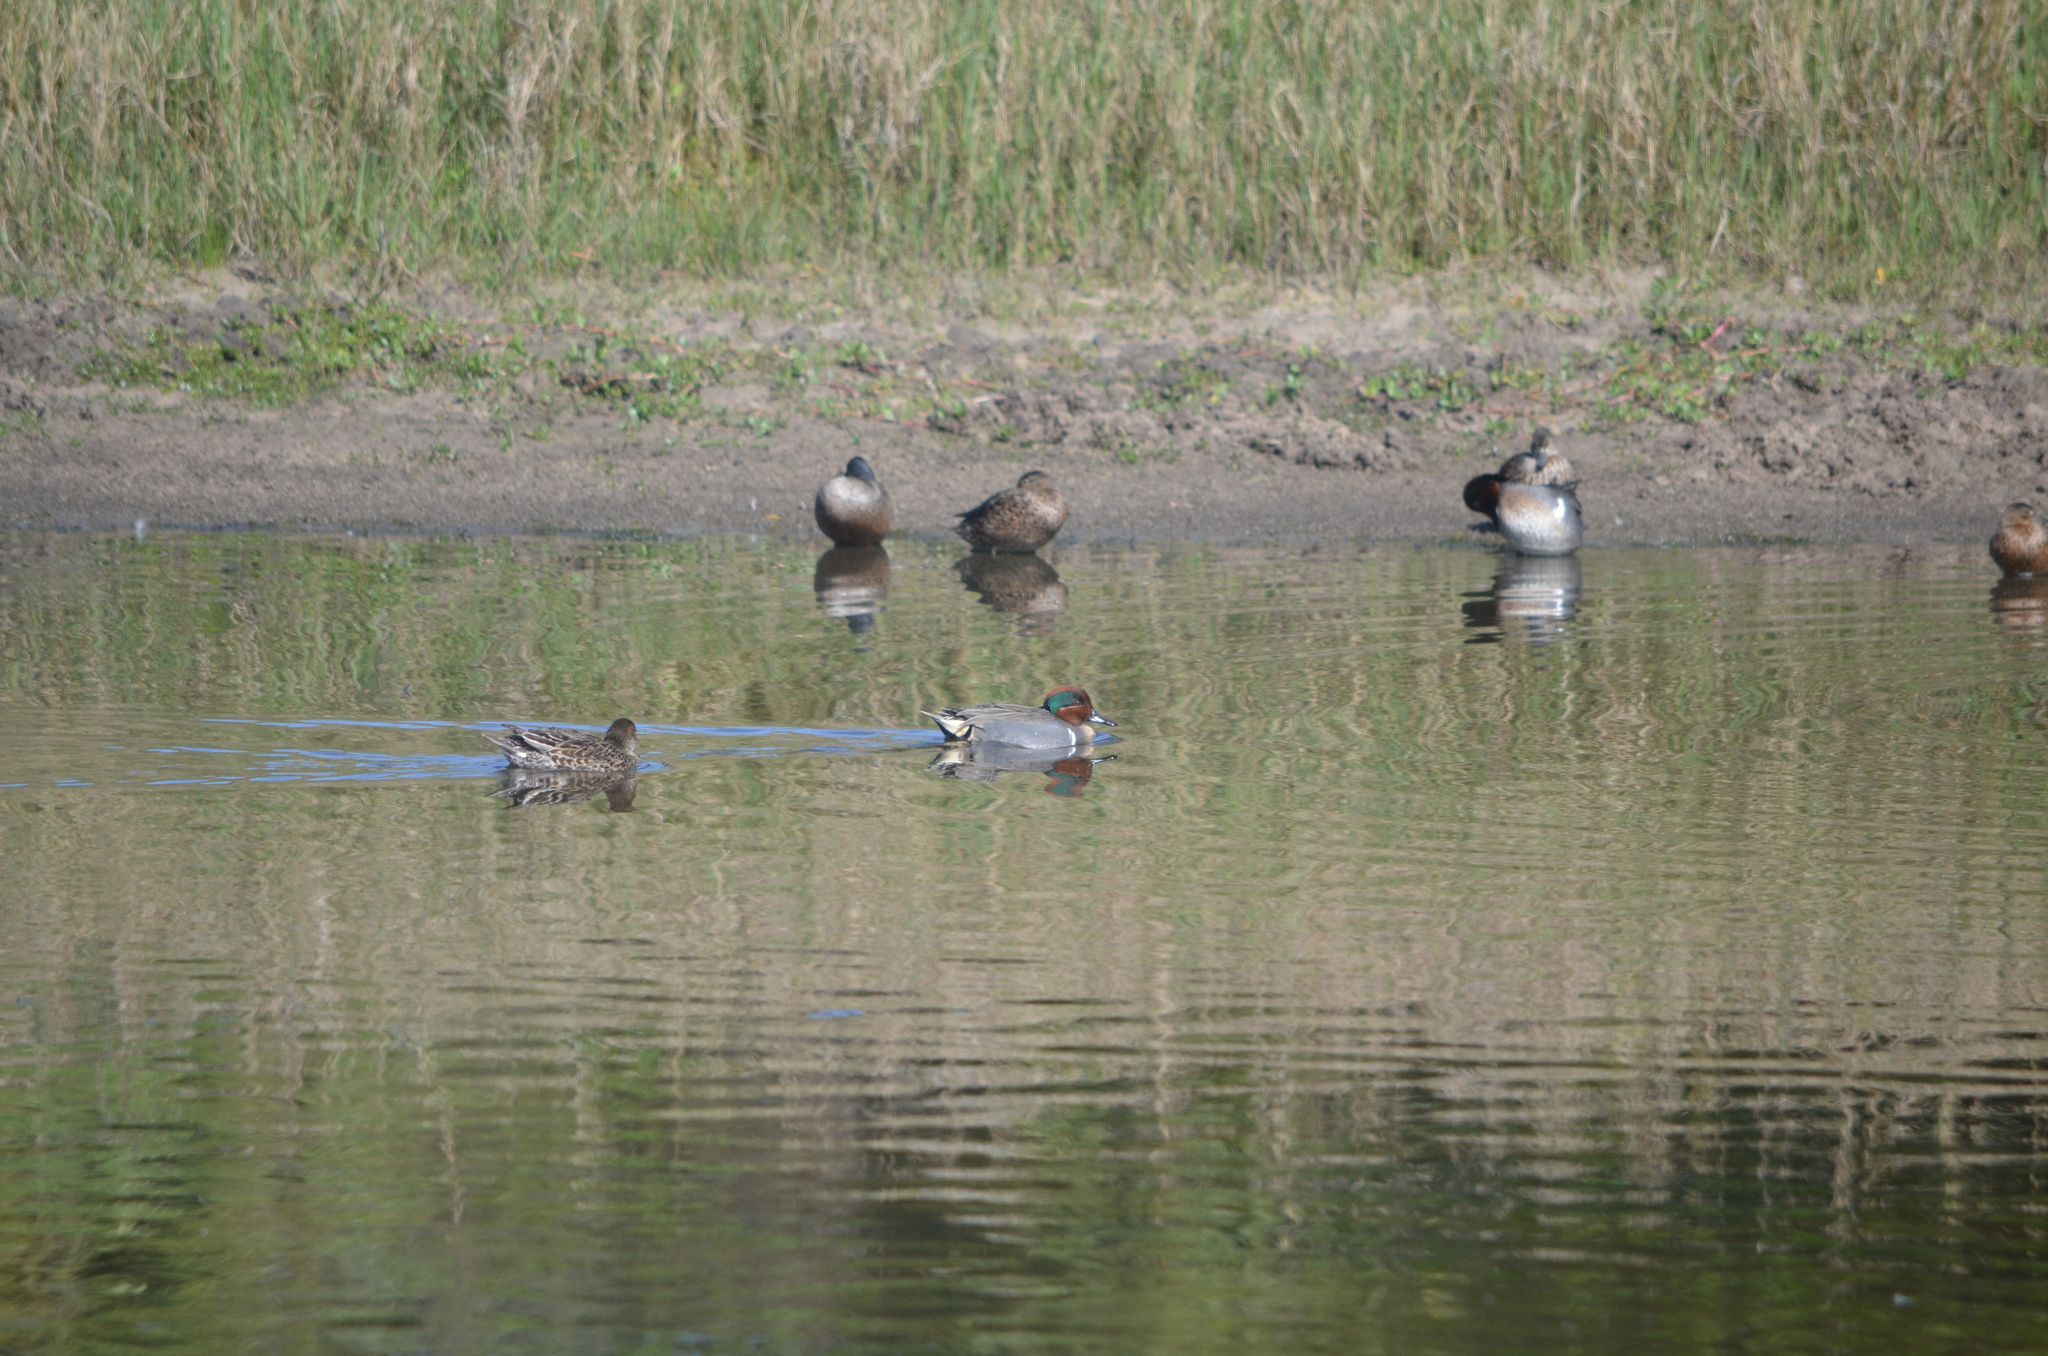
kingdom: Animalia
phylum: Chordata
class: Aves
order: Anseriformes
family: Anatidae
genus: Anas
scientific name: Anas crecca
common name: Eurasian teal
